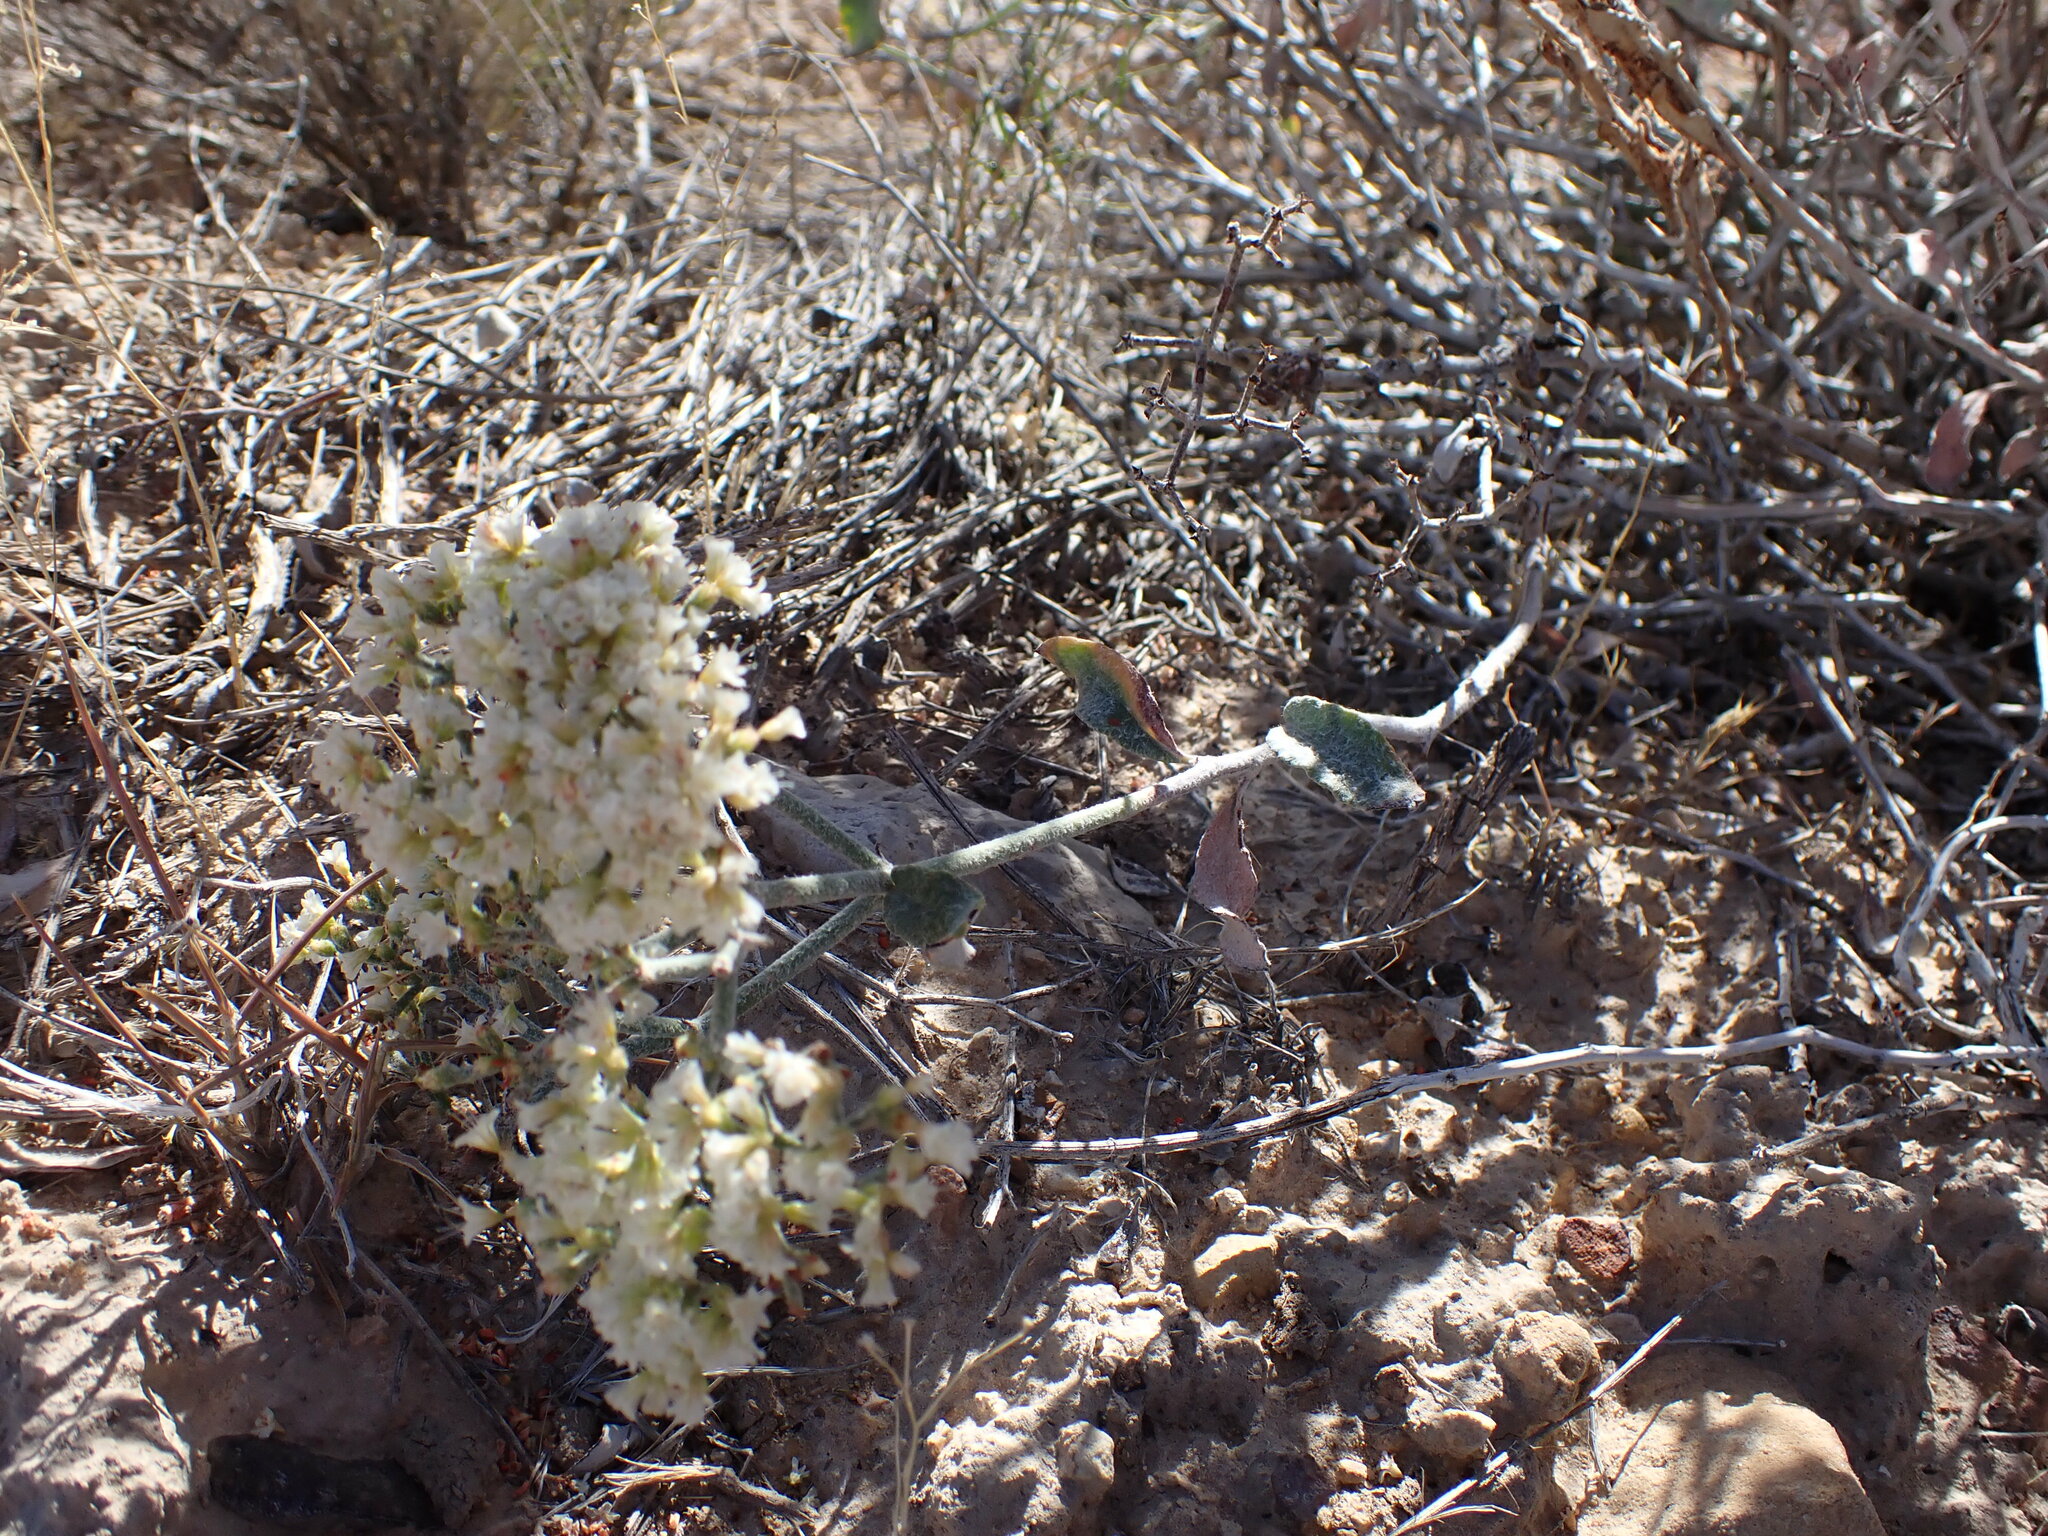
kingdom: Plantae
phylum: Tracheophyta
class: Magnoliopsida
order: Caryophyllales
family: Polygonaceae
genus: Eriogonum
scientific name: Eriogonum corymbosum
